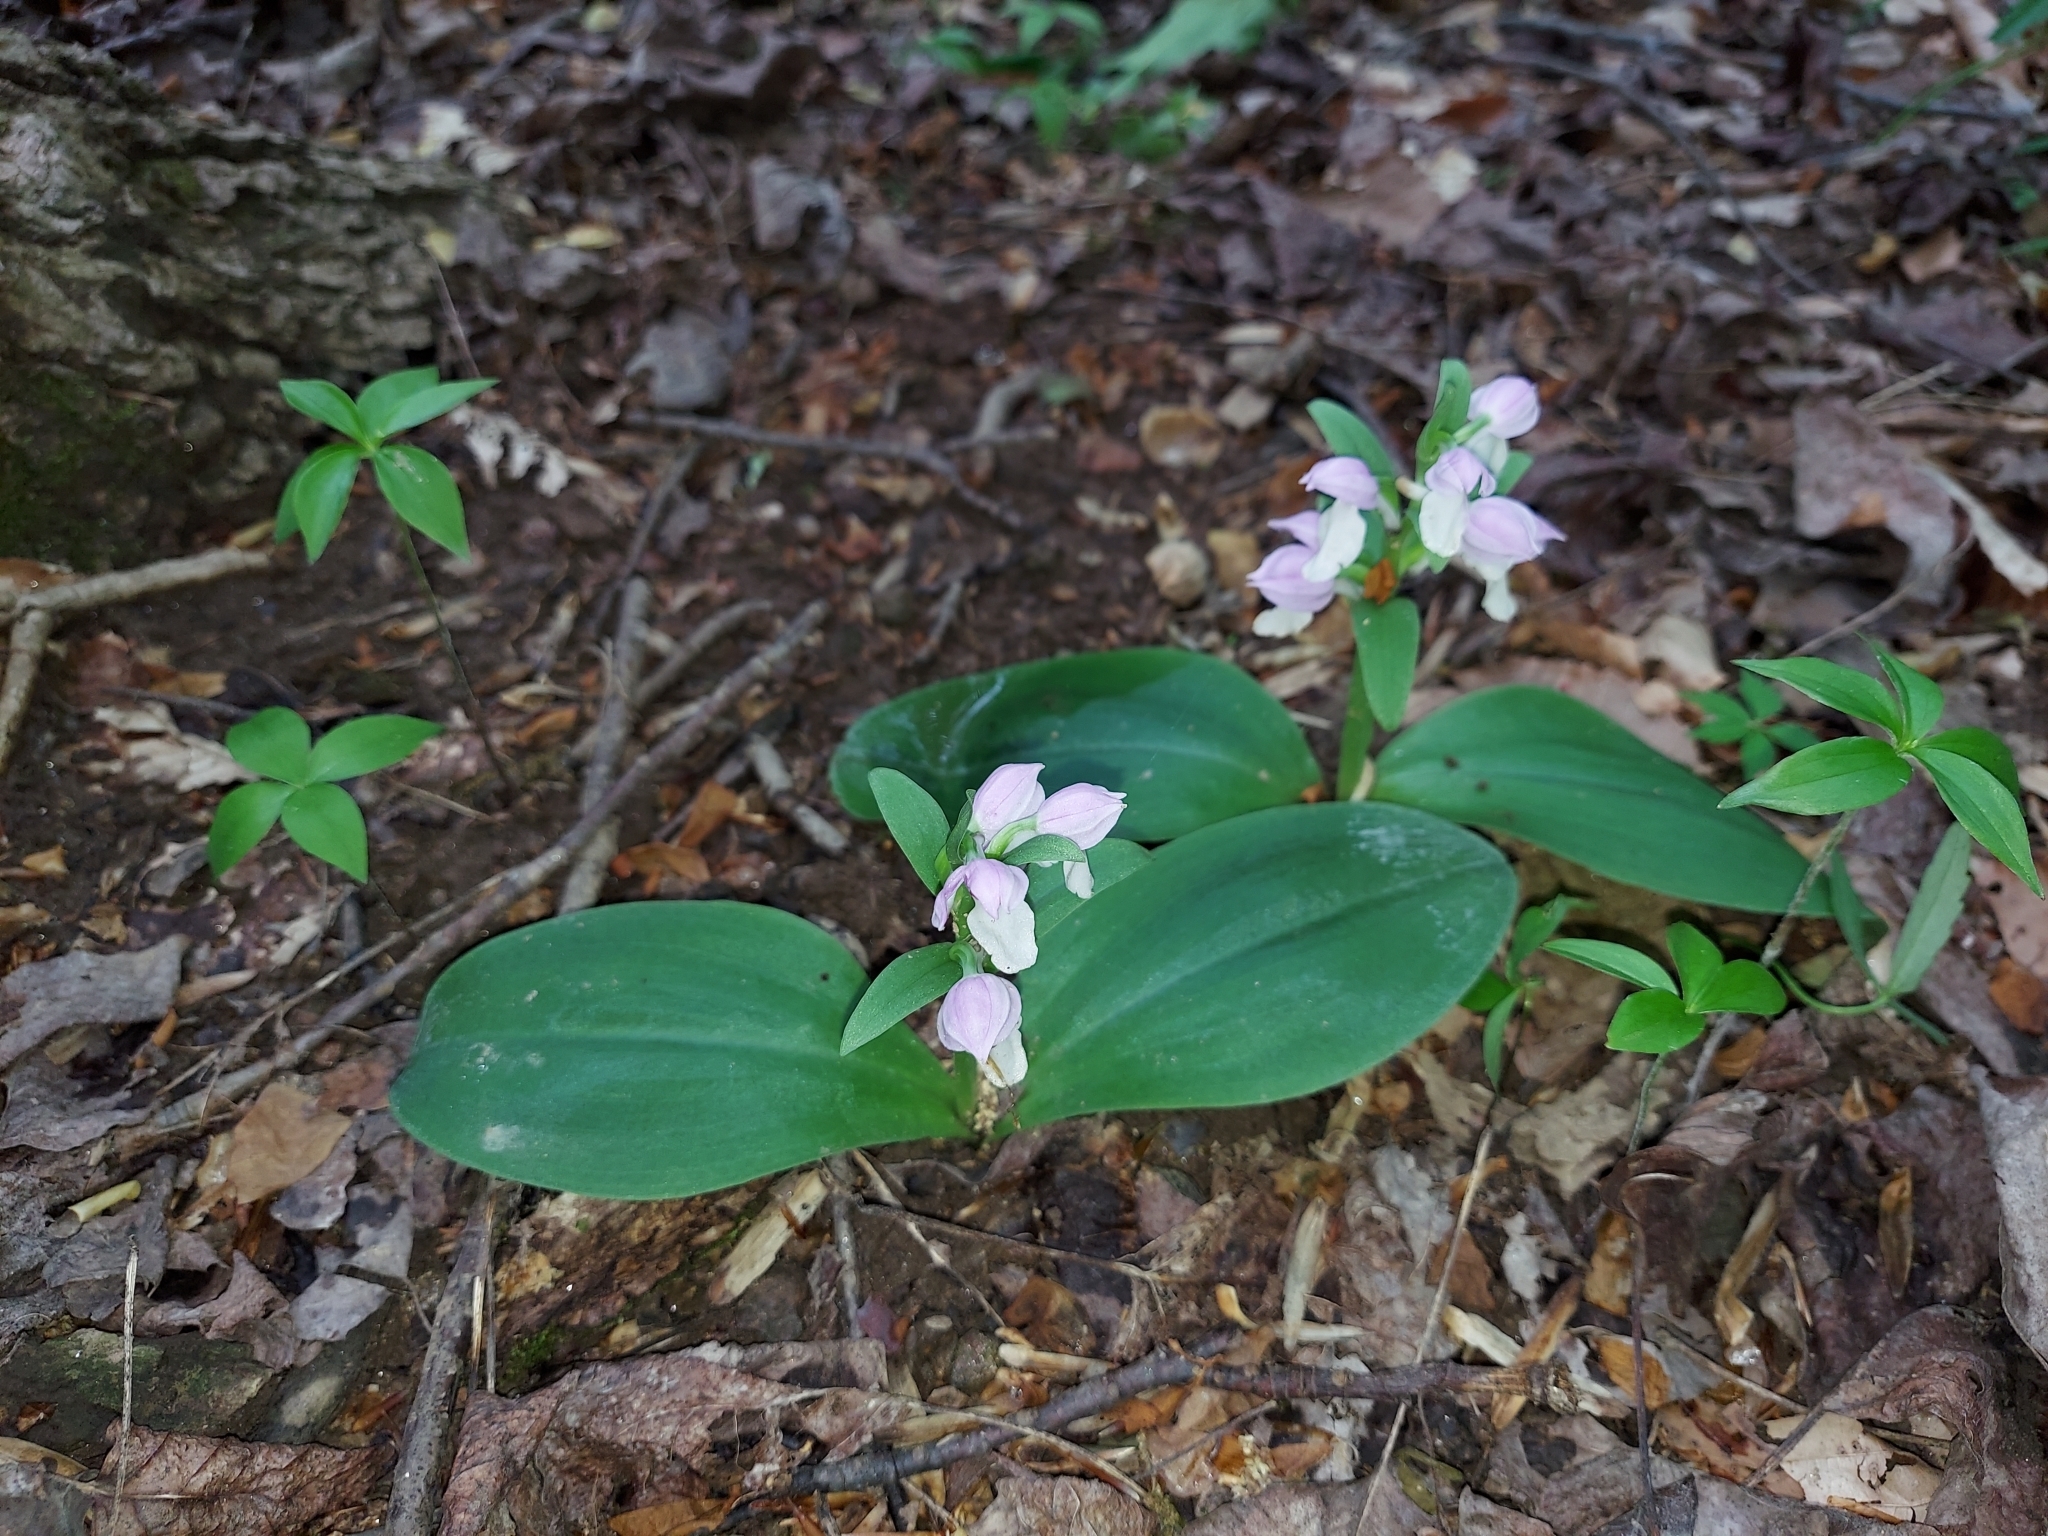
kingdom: Plantae
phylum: Tracheophyta
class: Liliopsida
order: Asparagales
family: Orchidaceae
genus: Galearis
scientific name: Galearis spectabilis
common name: Purple-hooded orchis
